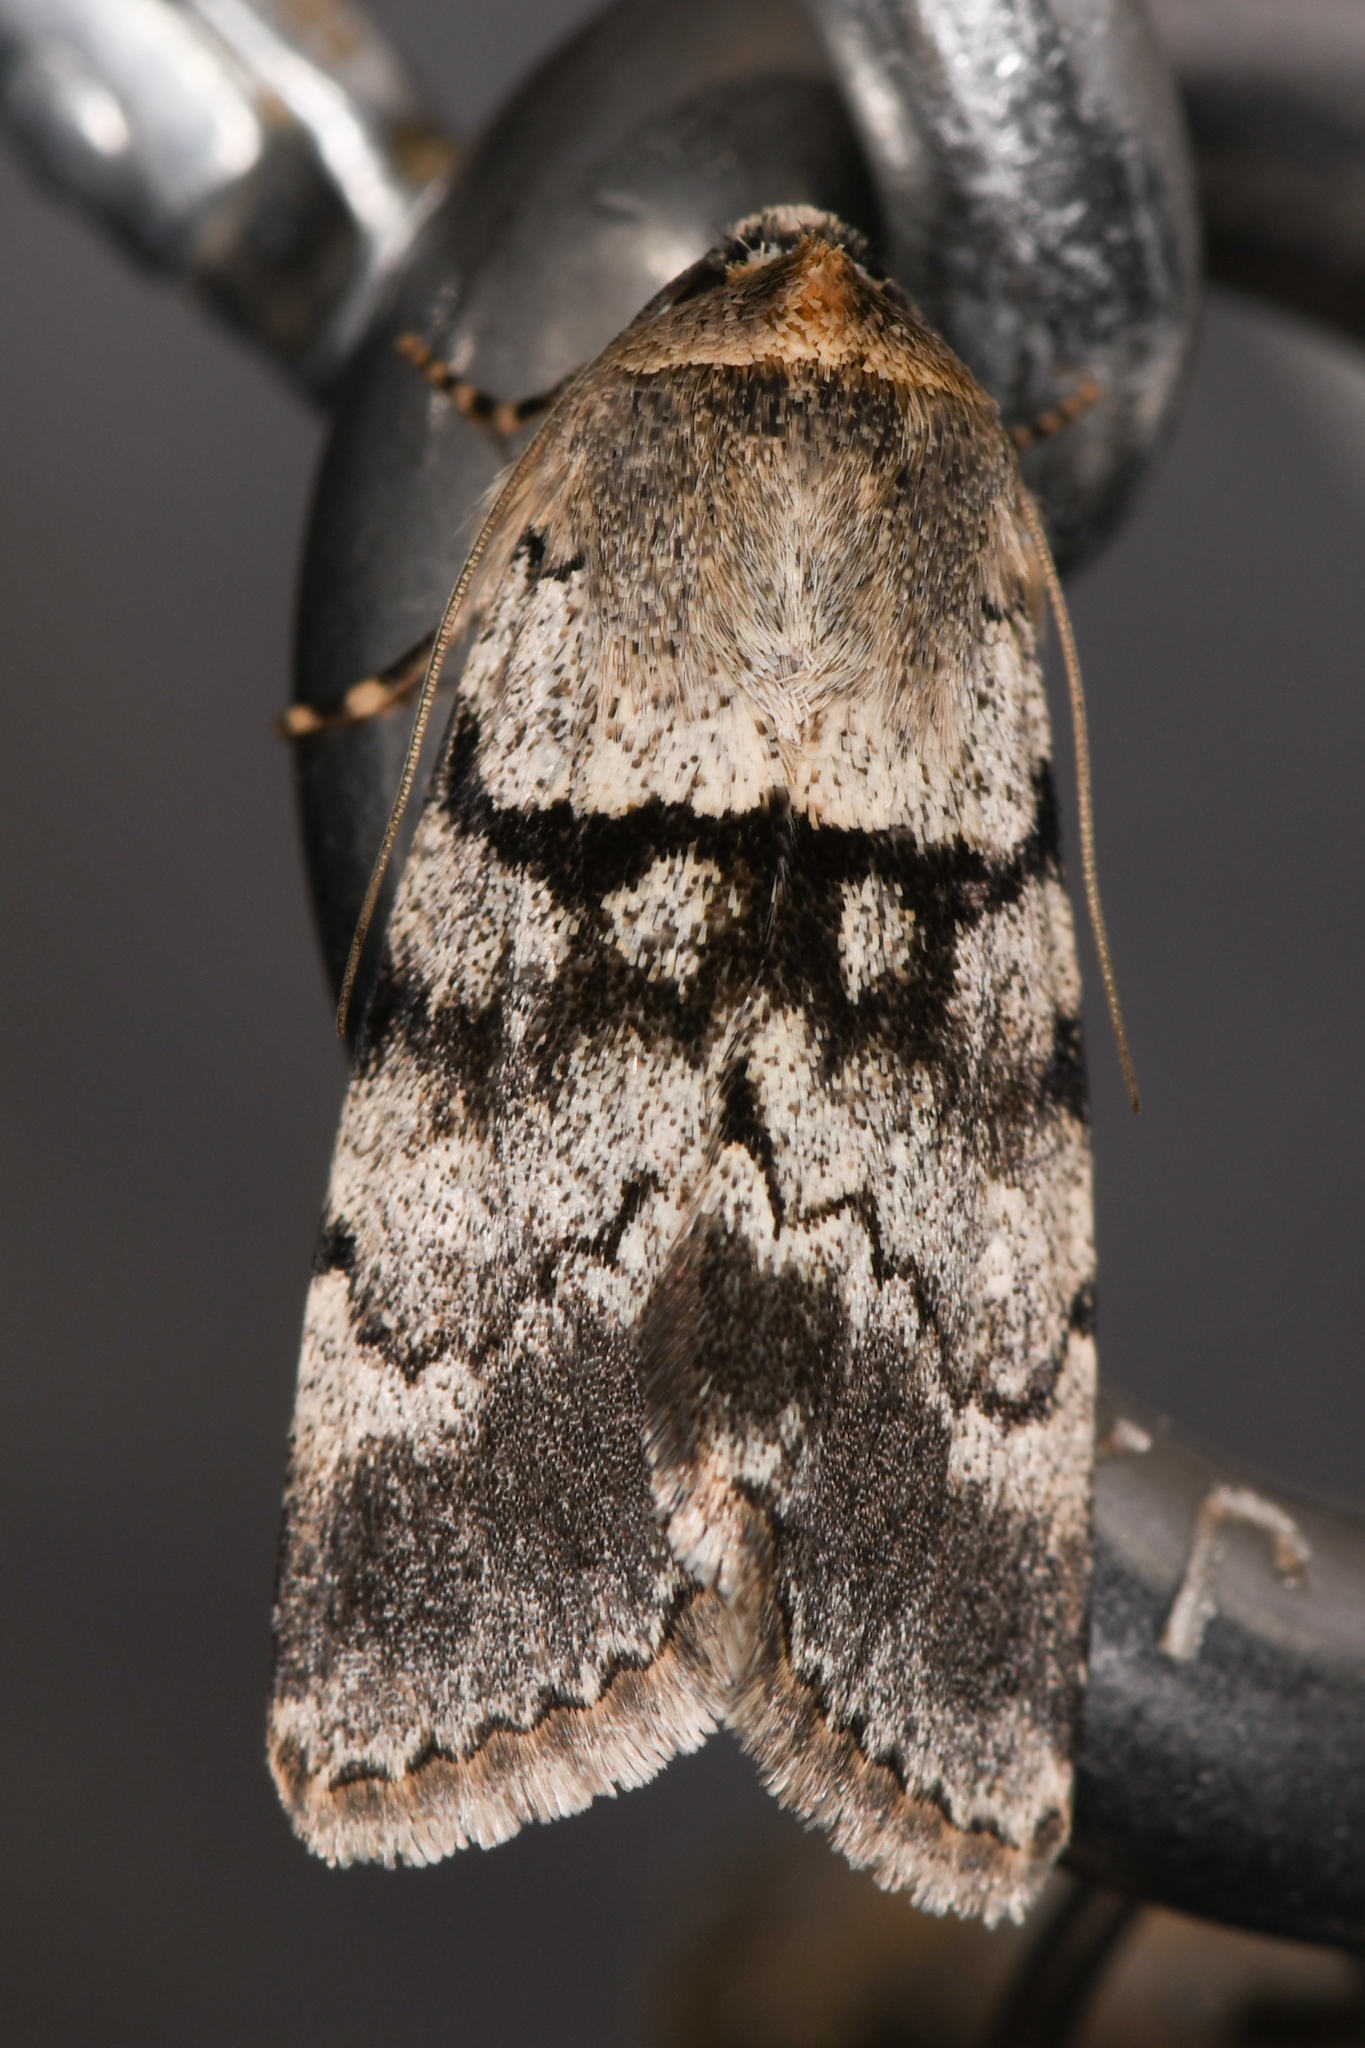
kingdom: Animalia
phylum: Arthropoda
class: Insecta
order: Lepidoptera
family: Noctuidae
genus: Sympistis
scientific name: Sympistis extremis
